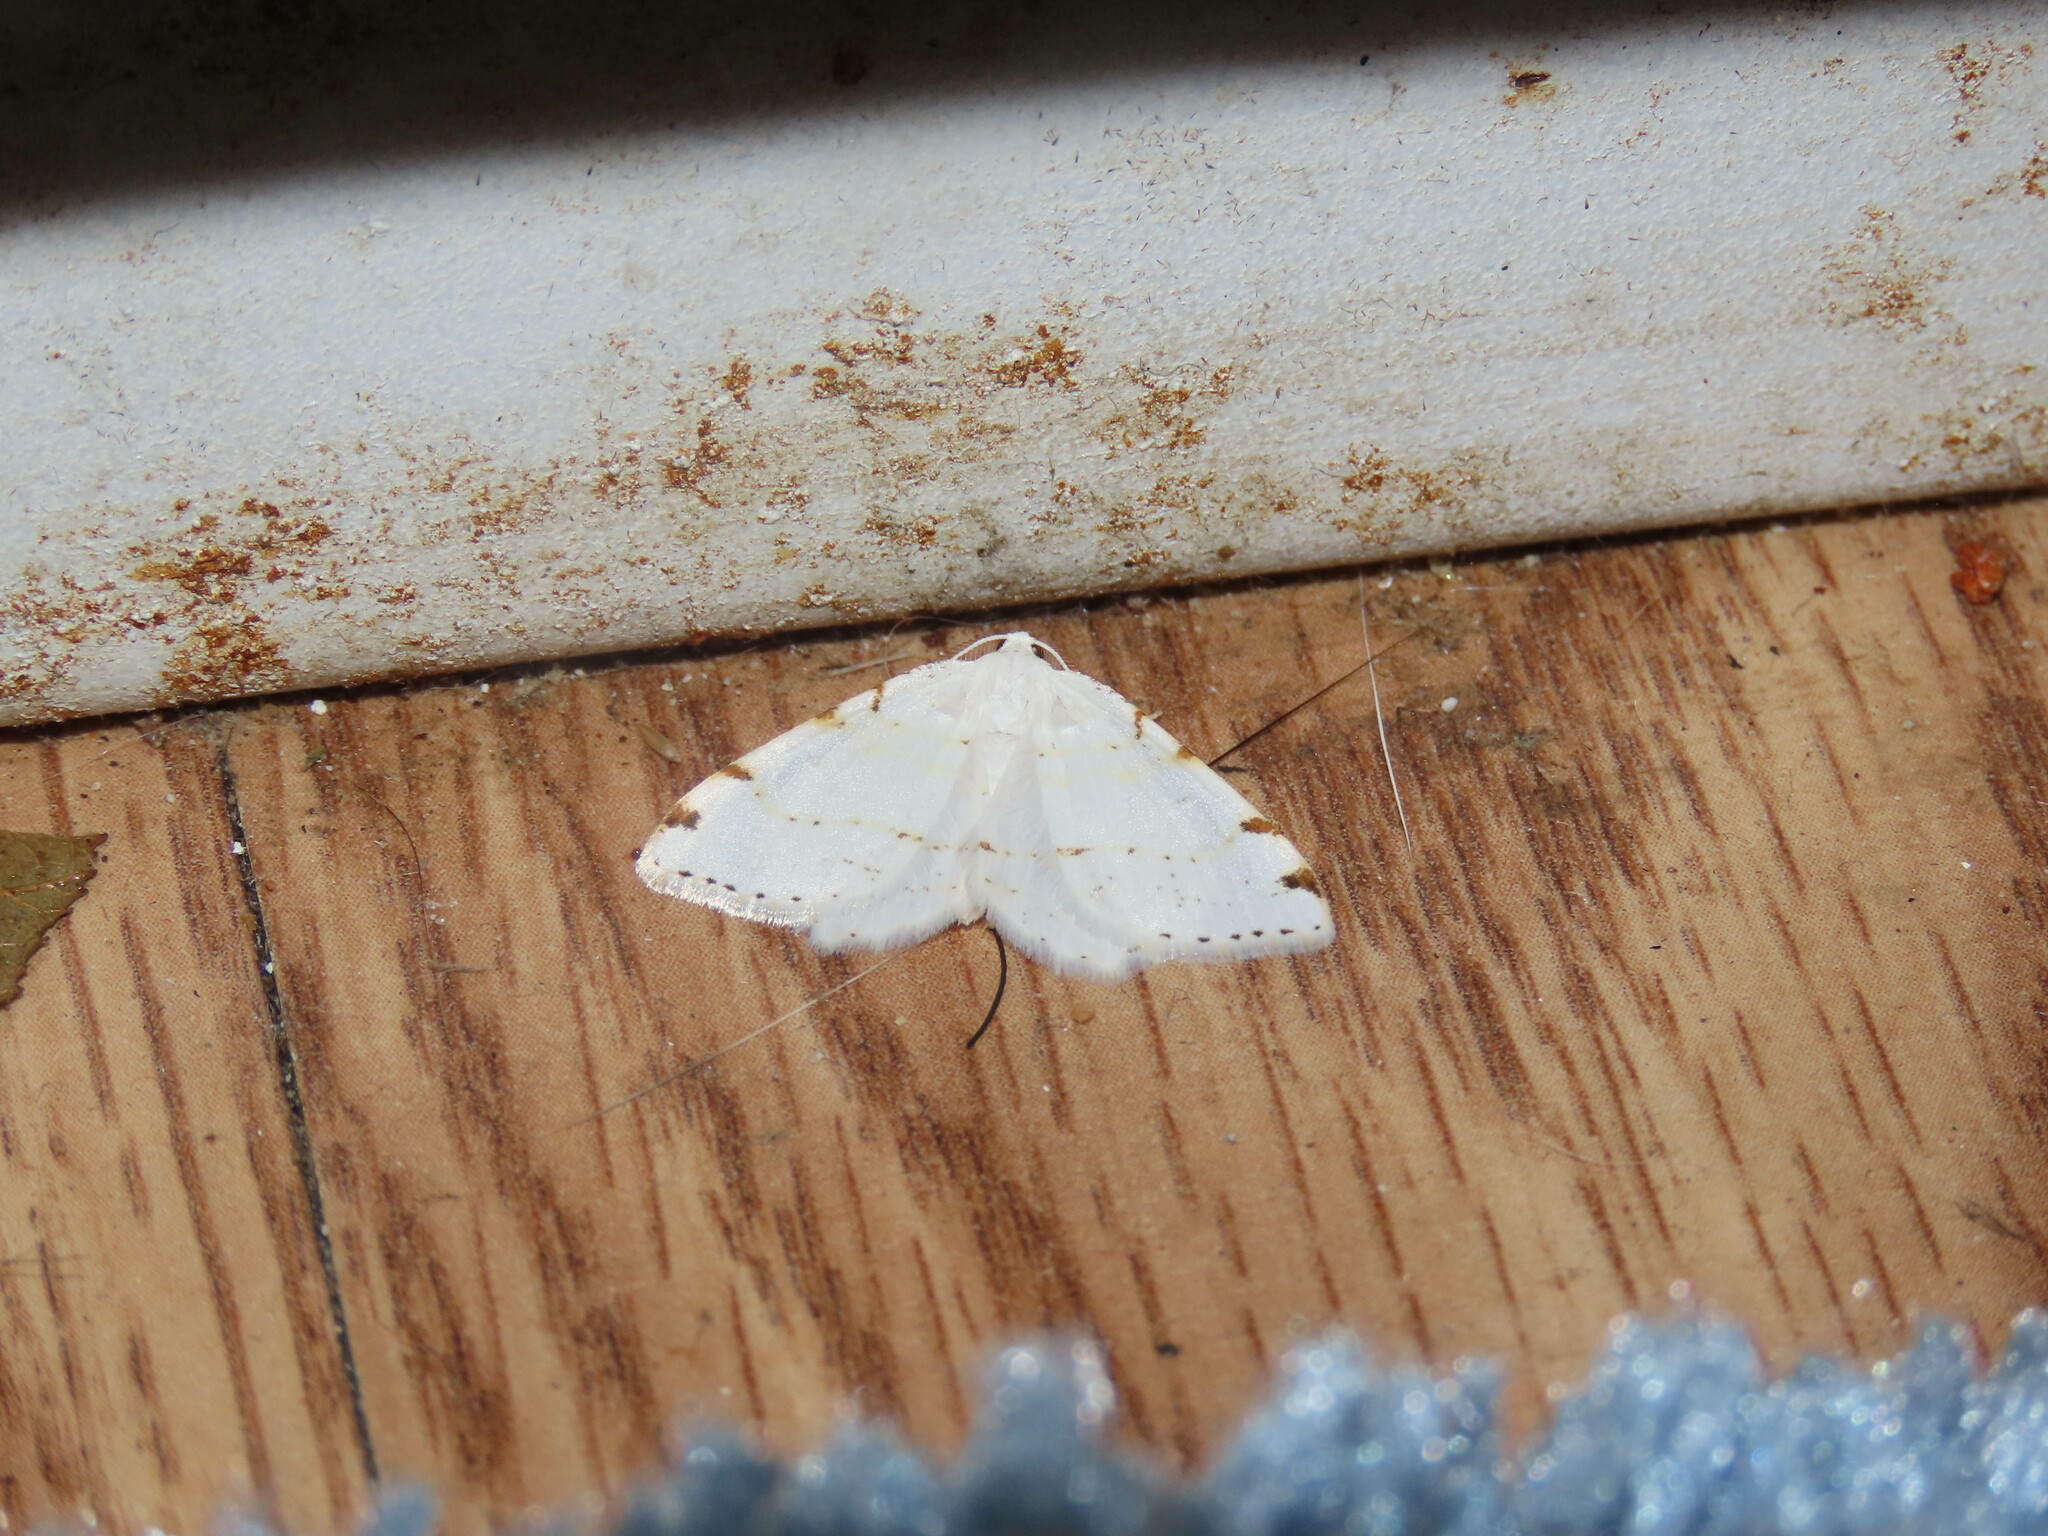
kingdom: Animalia
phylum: Arthropoda
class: Insecta
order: Lepidoptera
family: Geometridae
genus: Macaria
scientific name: Macaria pustularia
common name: Lesser maple spanworm moth
